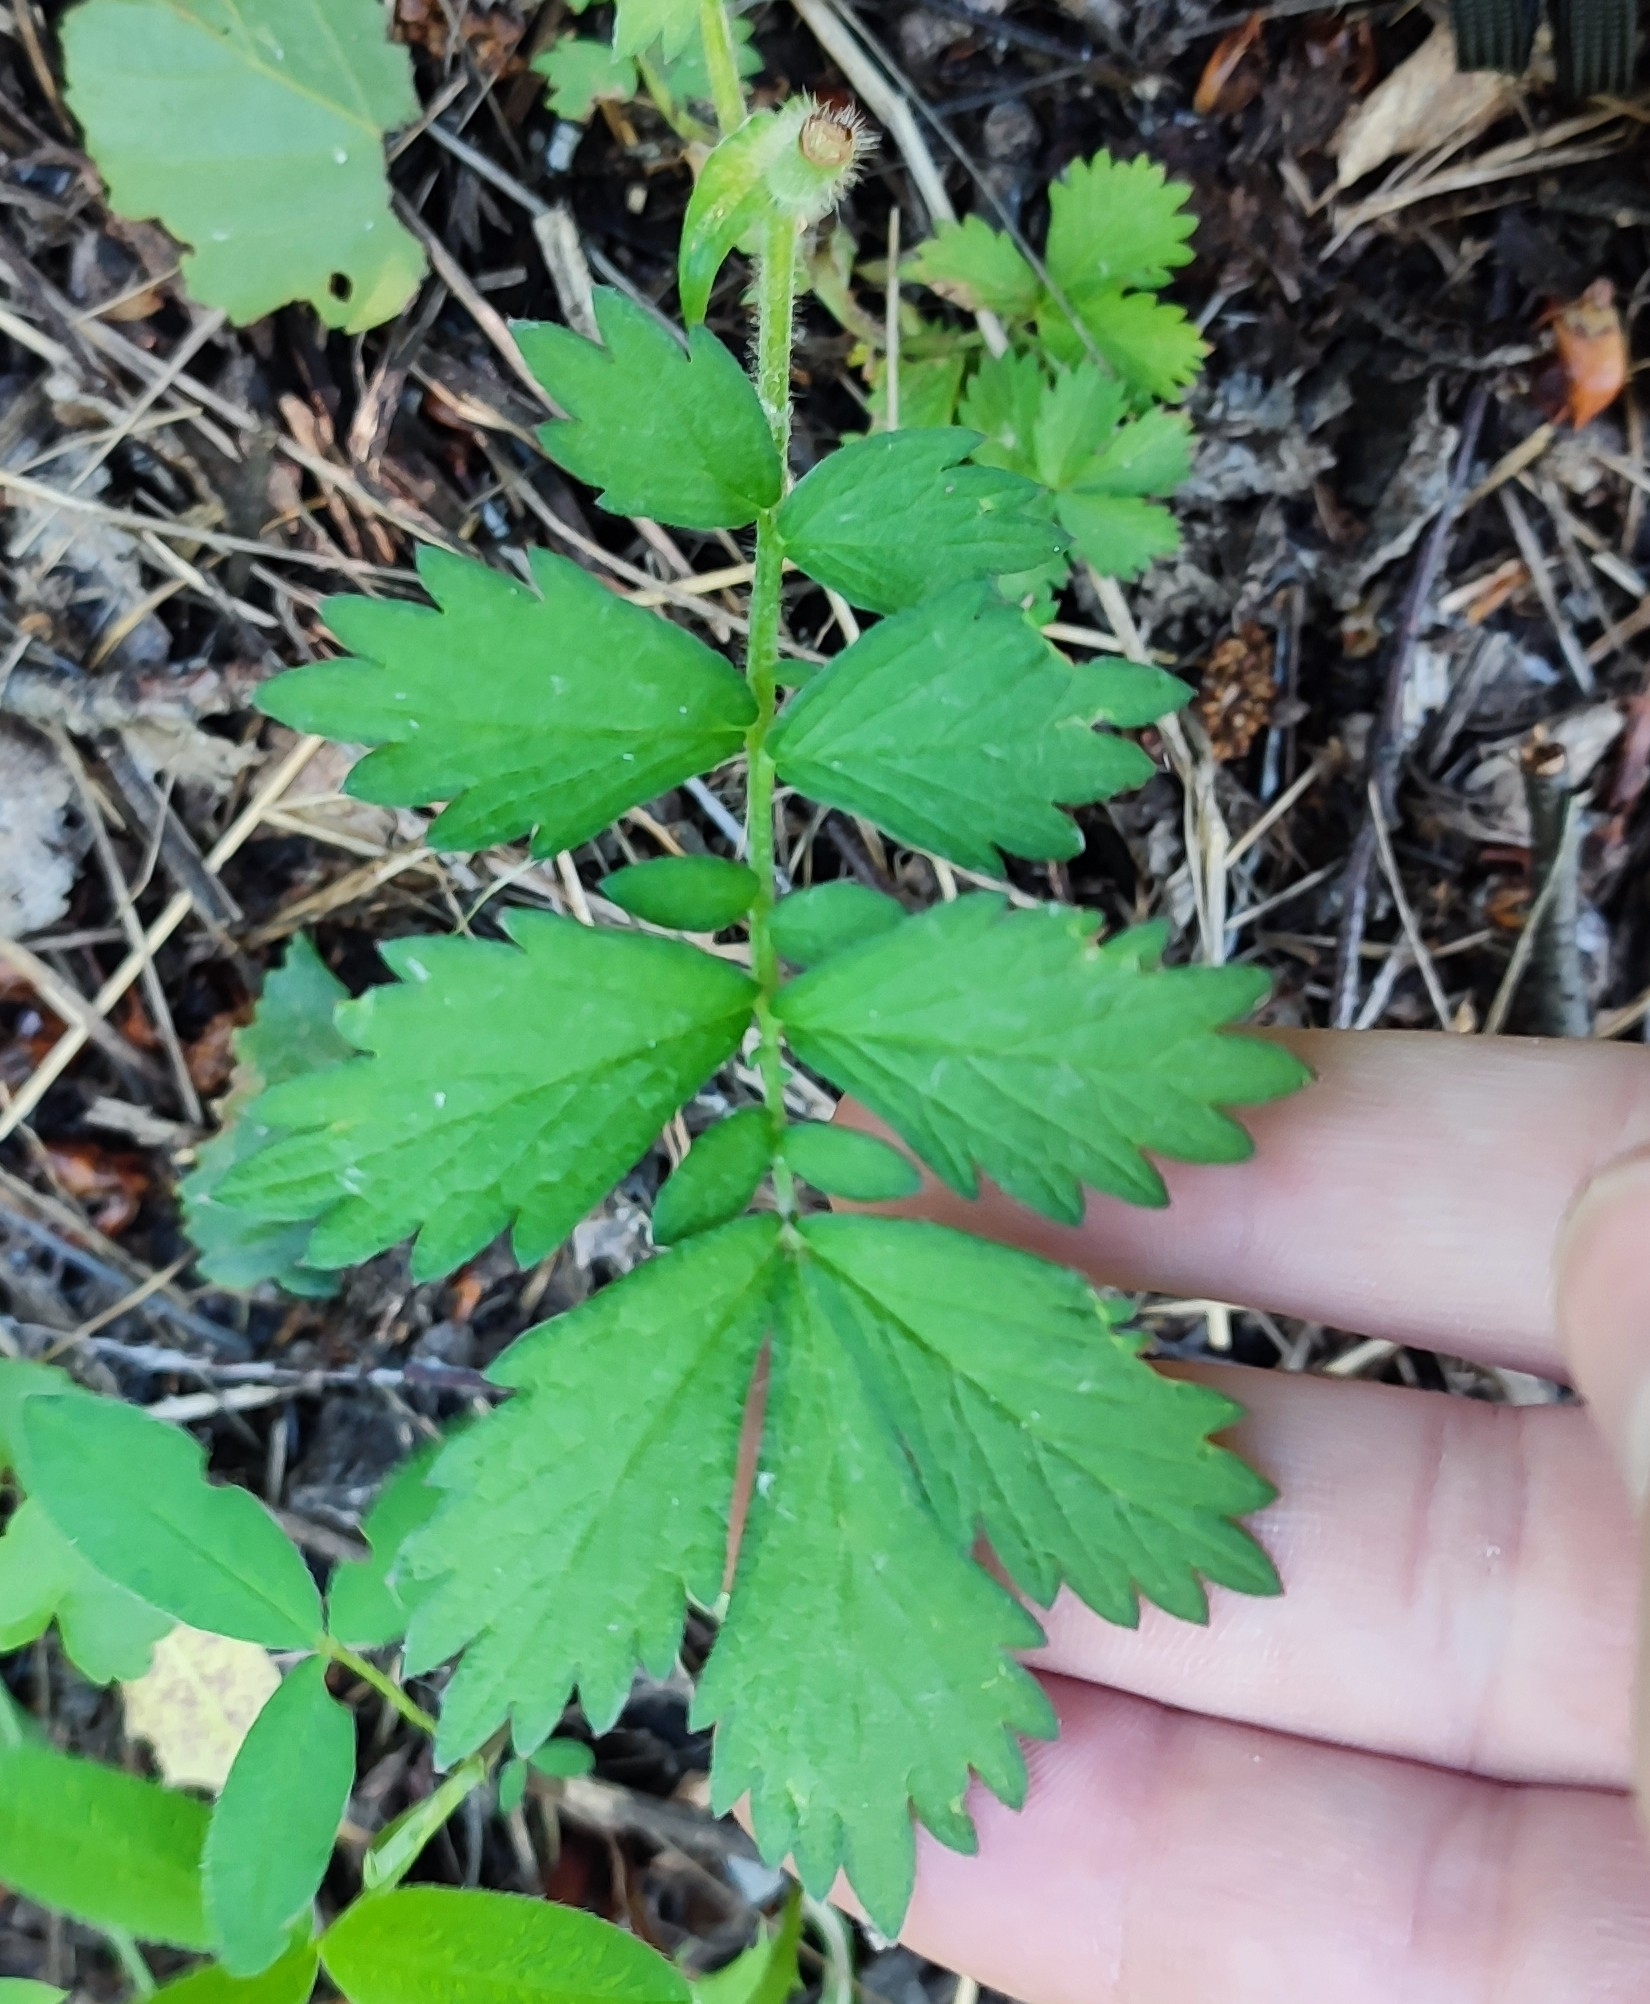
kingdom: Plantae
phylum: Tracheophyta
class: Magnoliopsida
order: Rosales
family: Rosaceae
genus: Agrimonia
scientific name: Agrimonia pilosa
